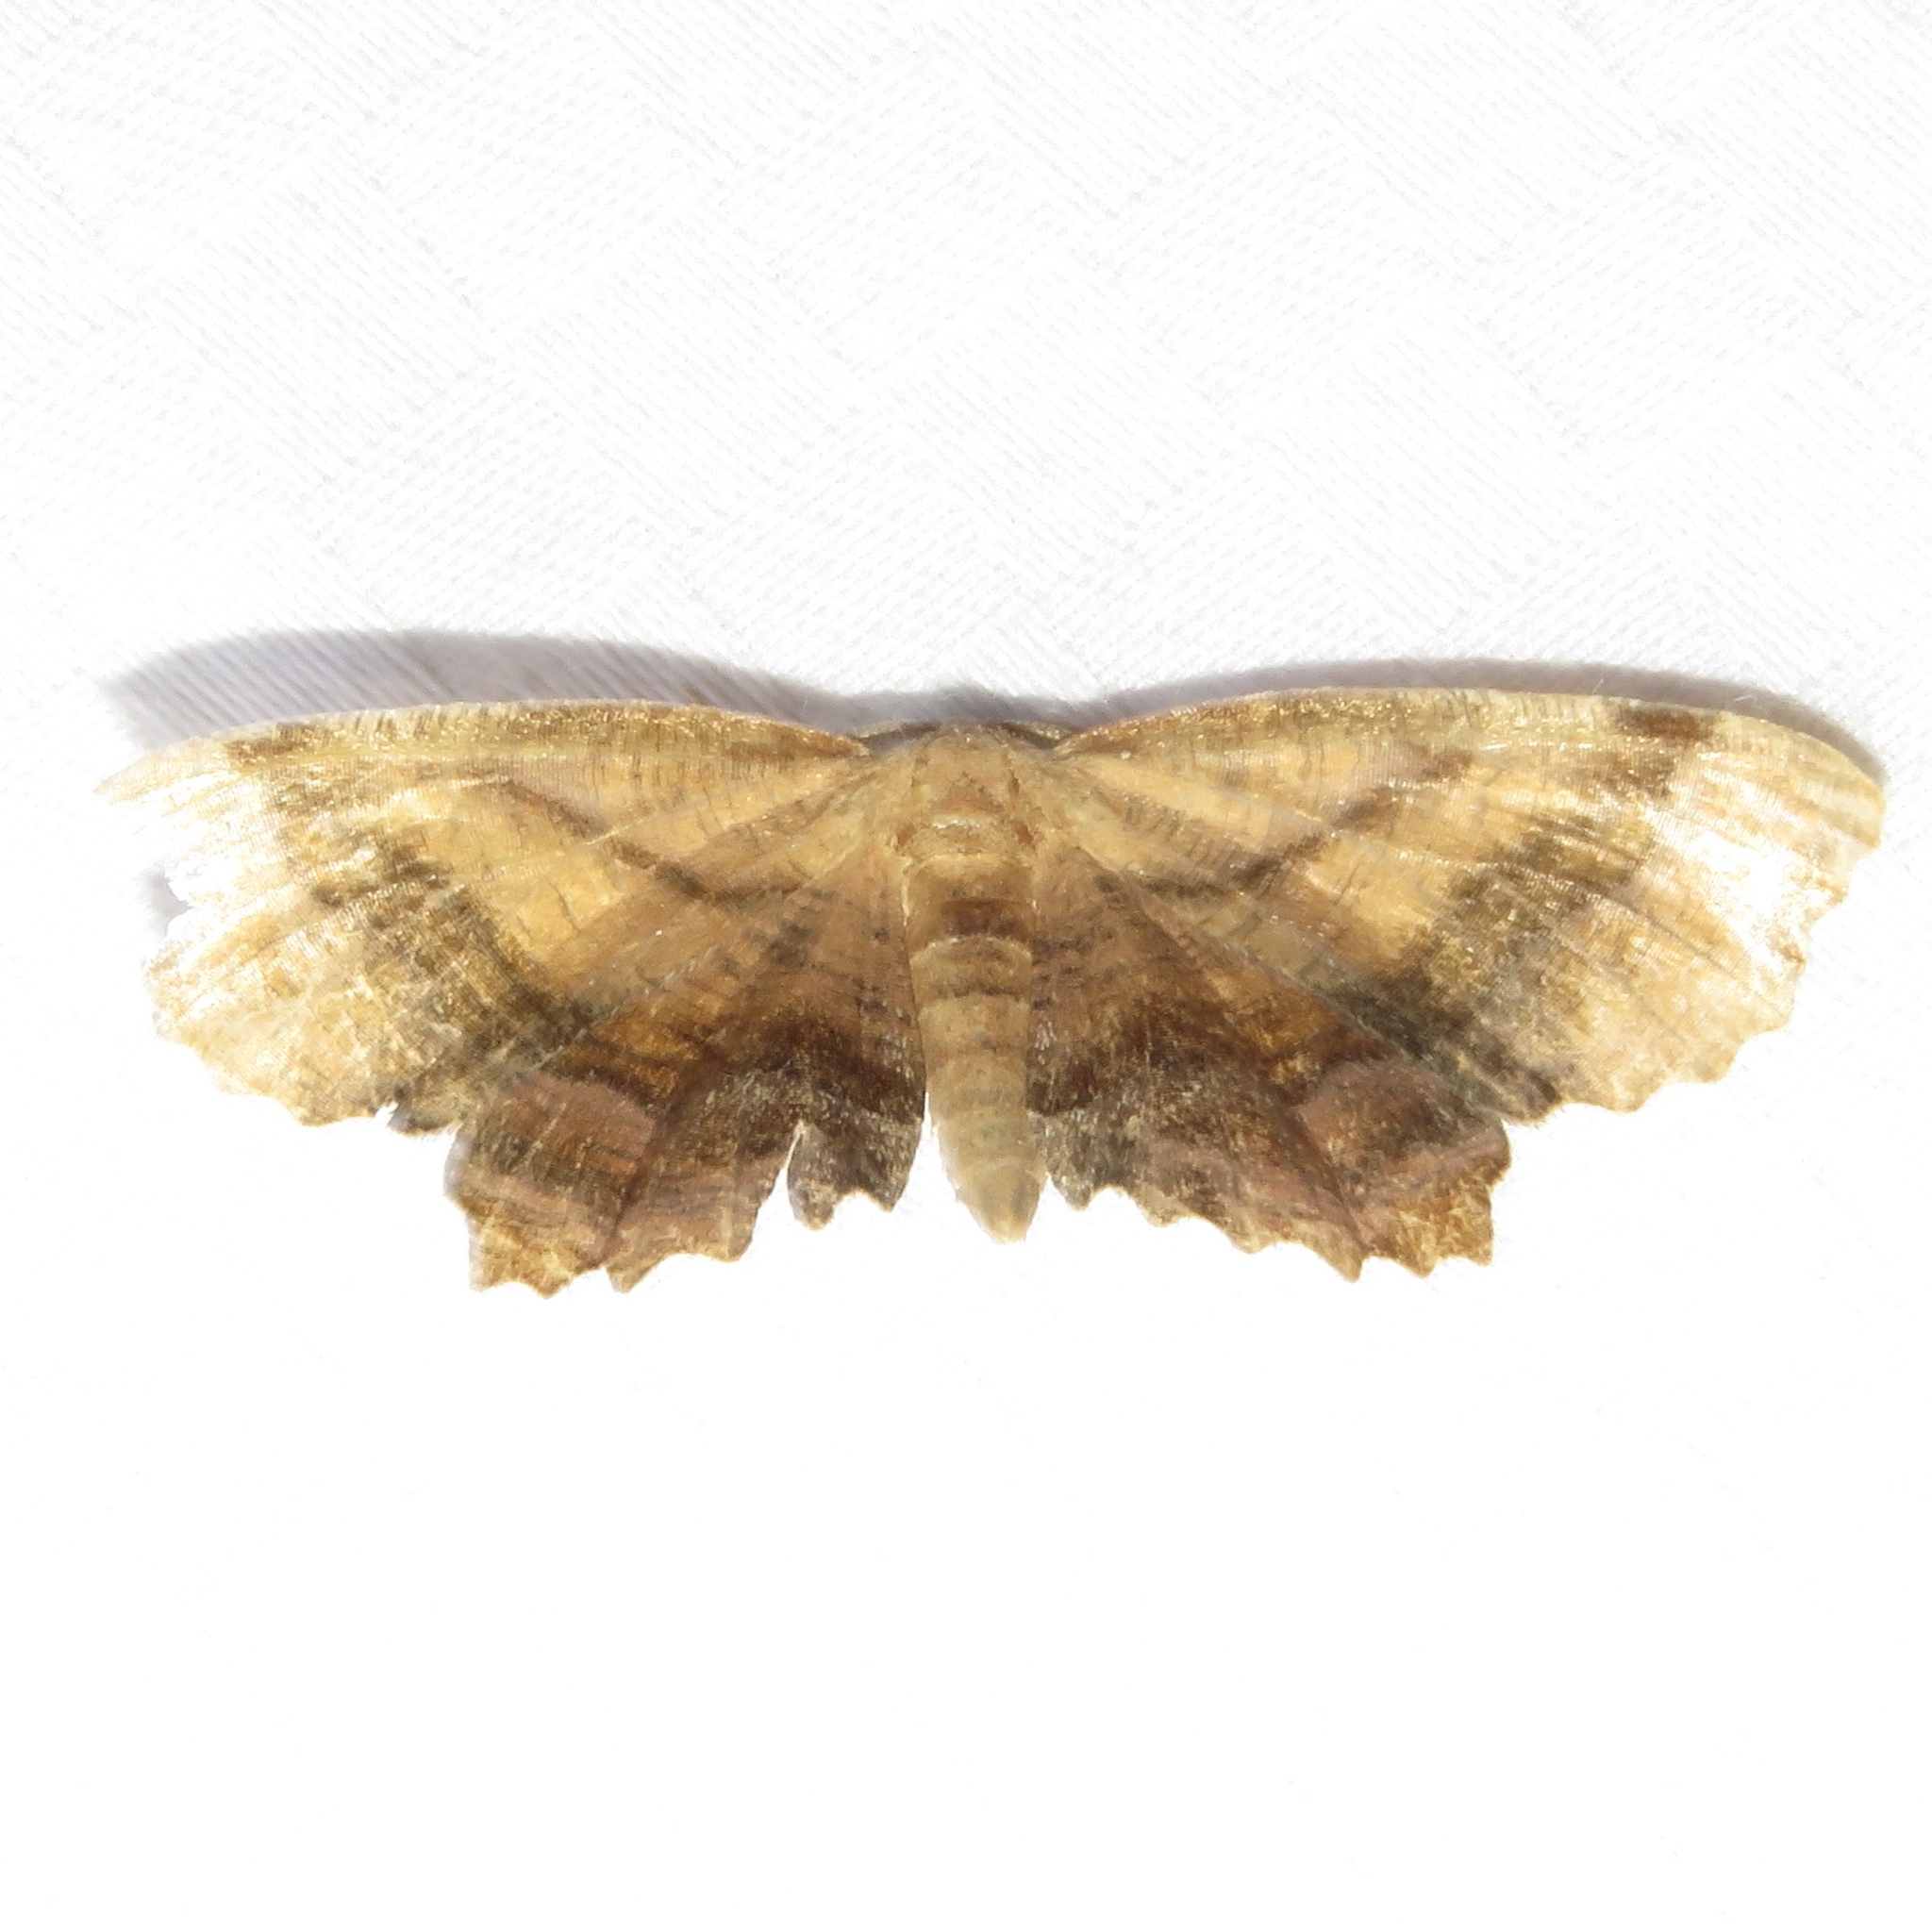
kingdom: Animalia
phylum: Arthropoda
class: Insecta
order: Lepidoptera
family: Geometridae
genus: Cepphis
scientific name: Cepphis armataria
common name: Scallop moth
